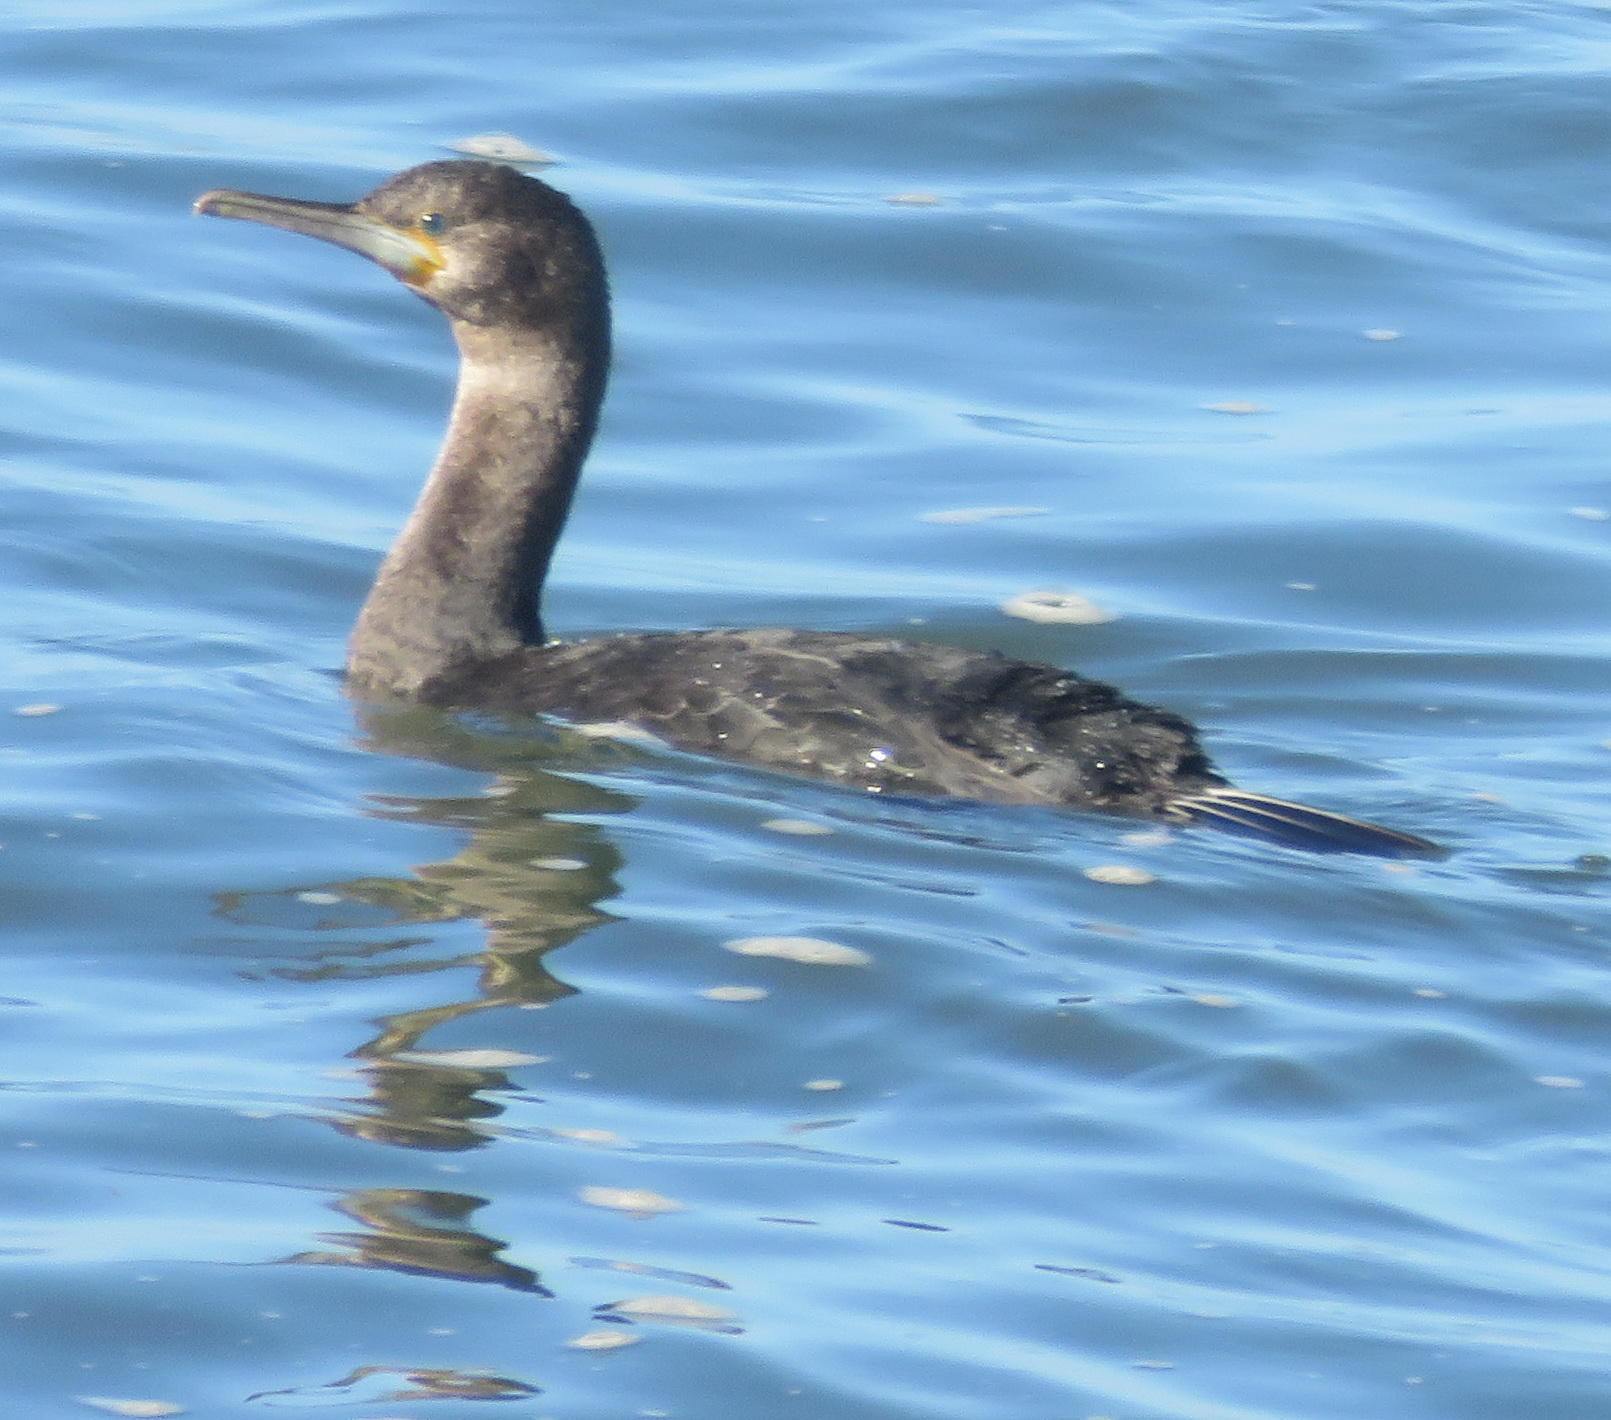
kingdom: Animalia
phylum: Chordata
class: Aves
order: Suliformes
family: Phalacrocoracidae
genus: Phalacrocorax
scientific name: Phalacrocorax capensis
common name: Cape cormorant
